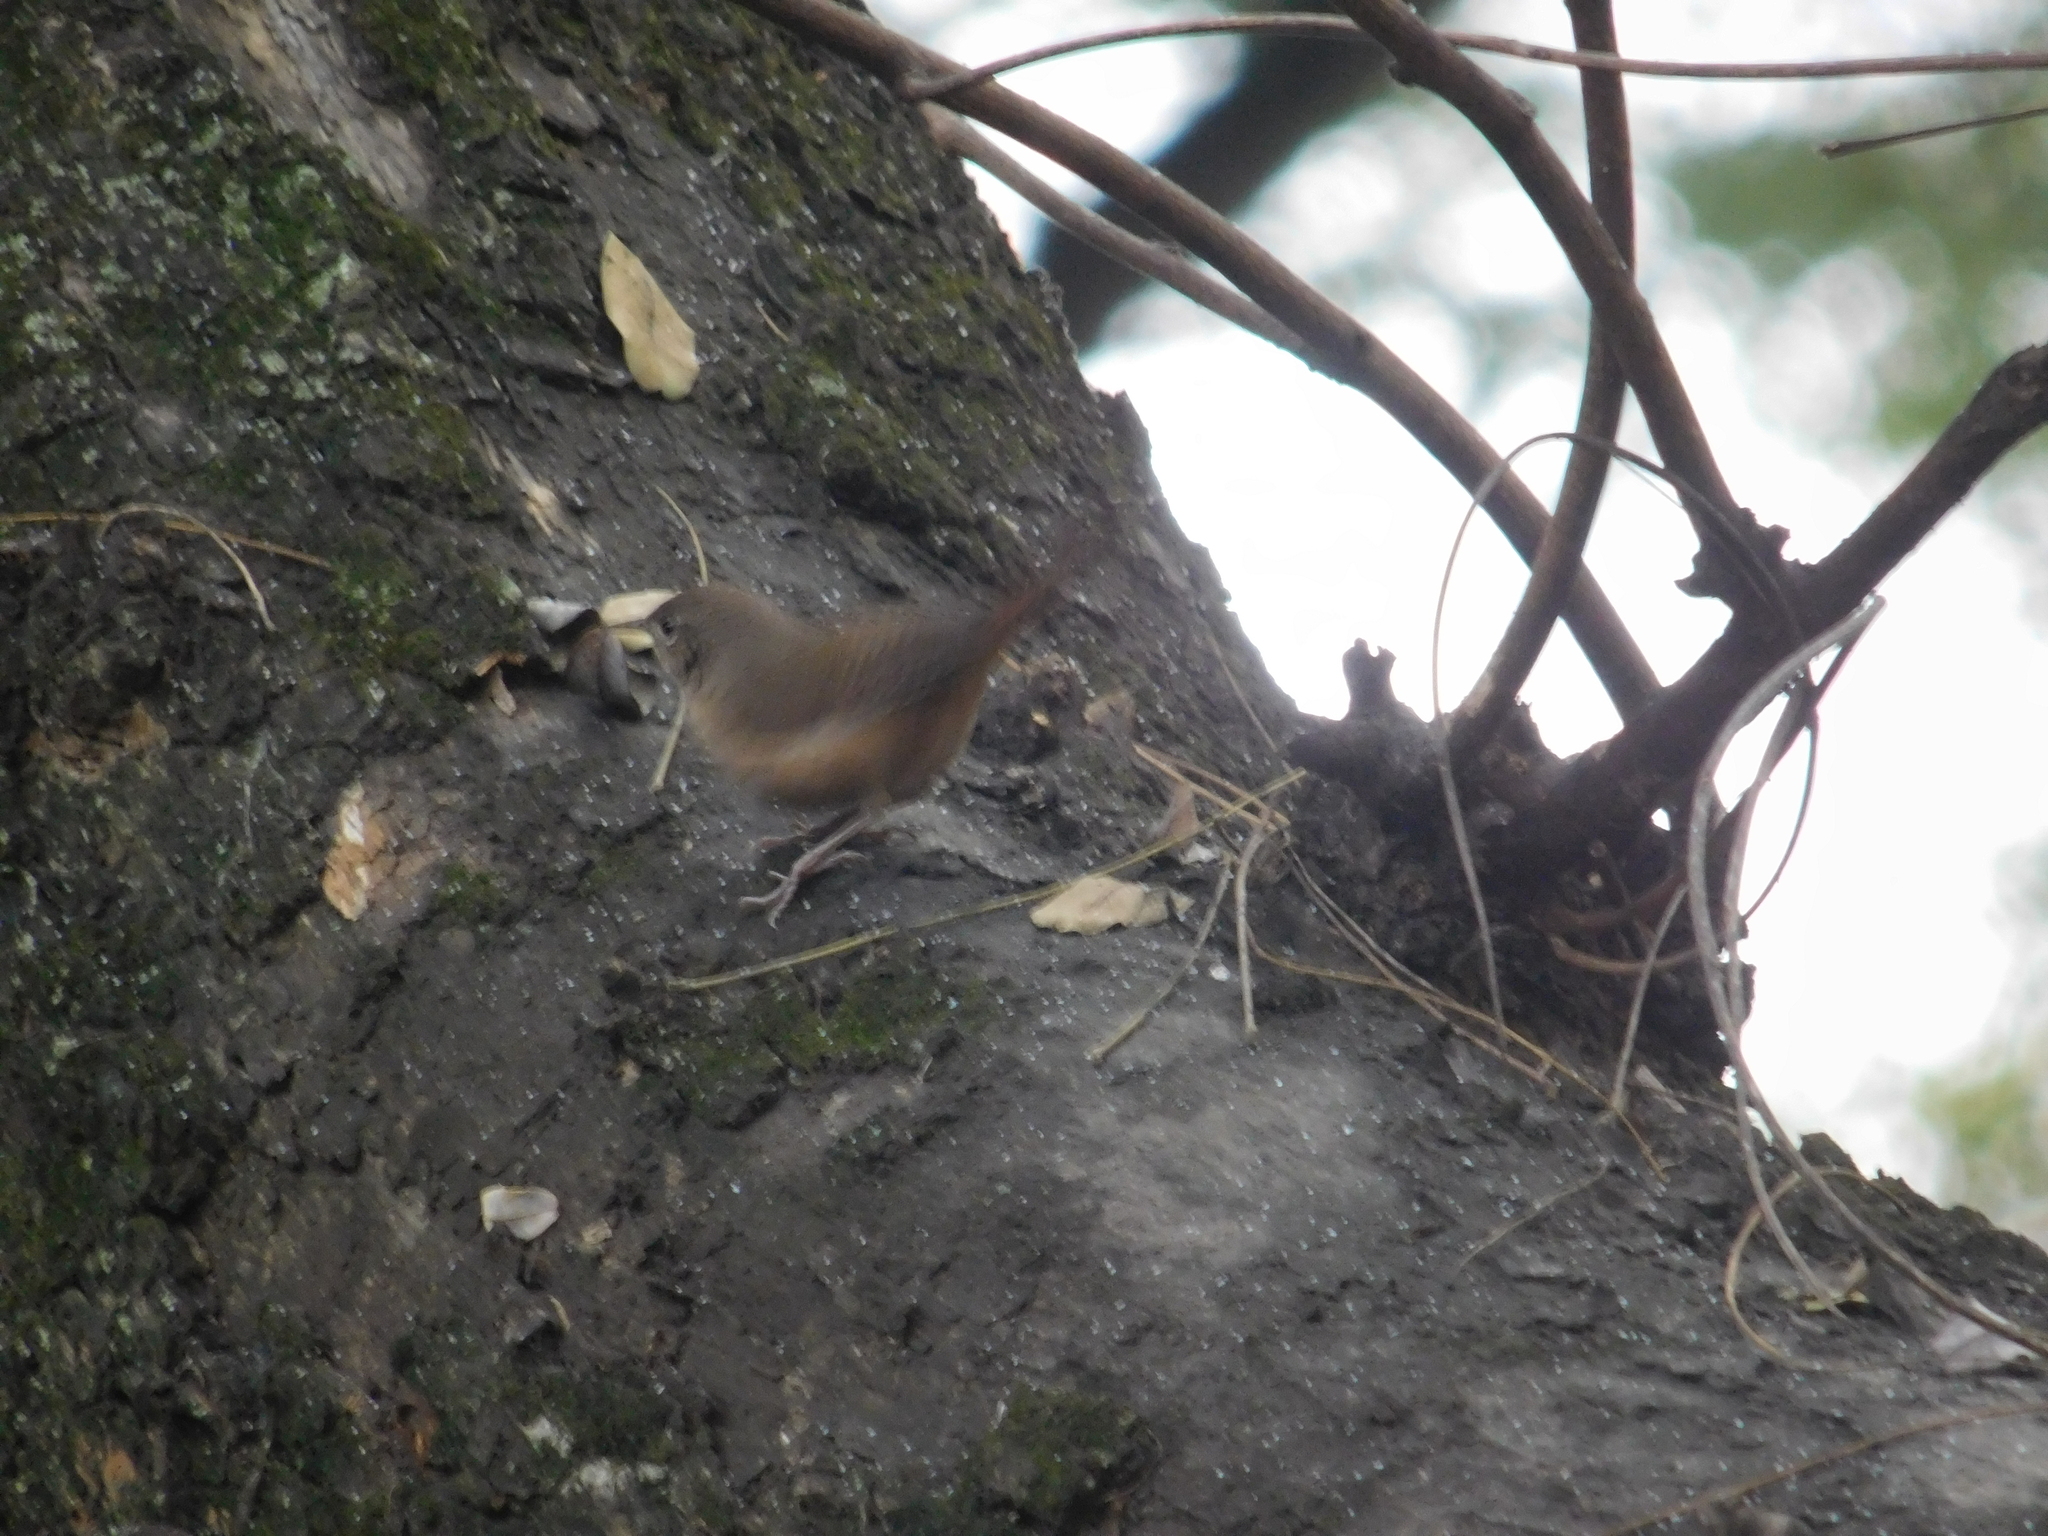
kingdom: Animalia
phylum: Chordata
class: Aves
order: Passeriformes
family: Troglodytidae
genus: Troglodytes
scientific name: Troglodytes aedon
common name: House wren
